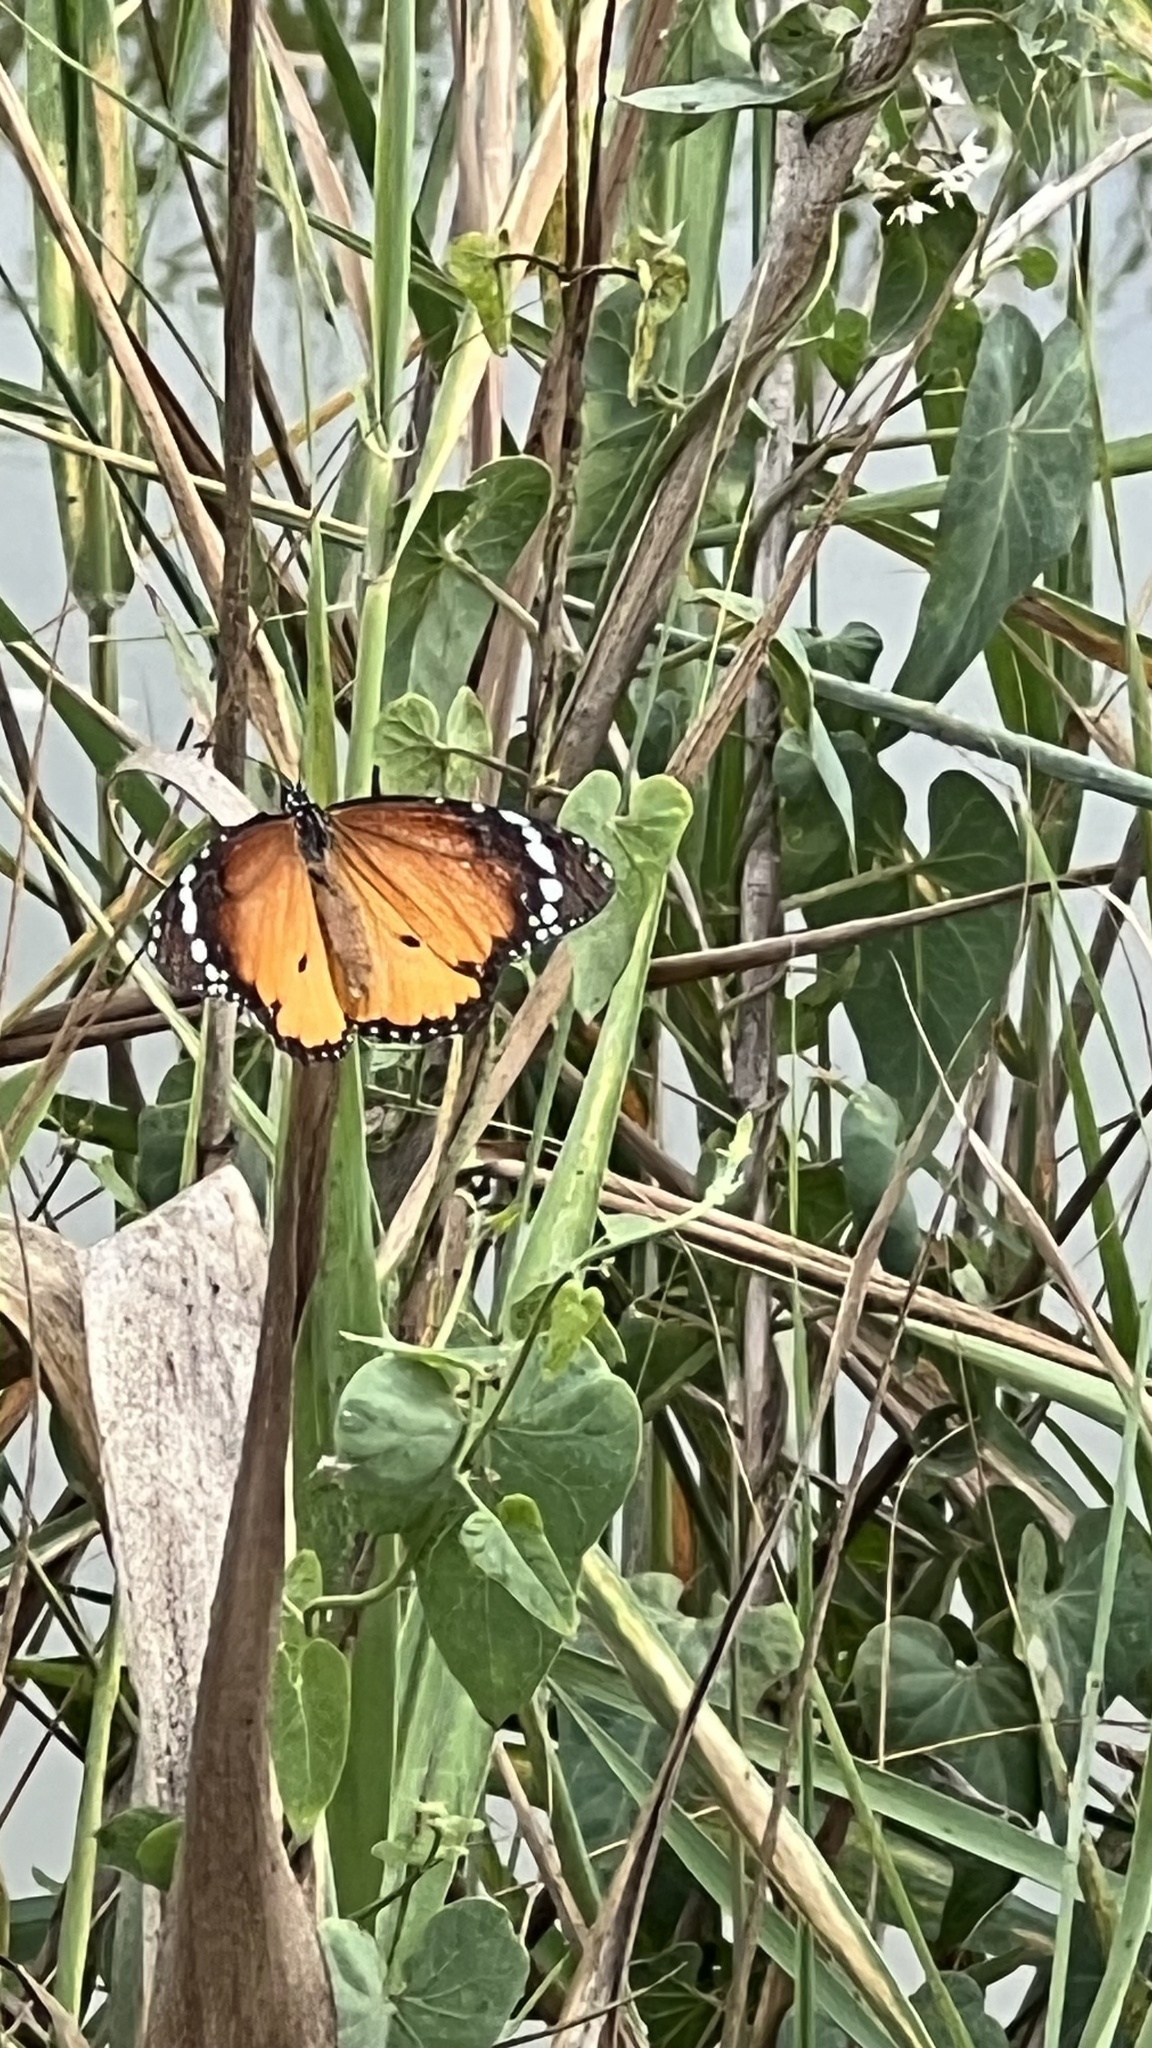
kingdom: Animalia
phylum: Arthropoda
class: Insecta
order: Lepidoptera
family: Nymphalidae
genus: Danaus
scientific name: Danaus chrysippus
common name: Plain tiger
